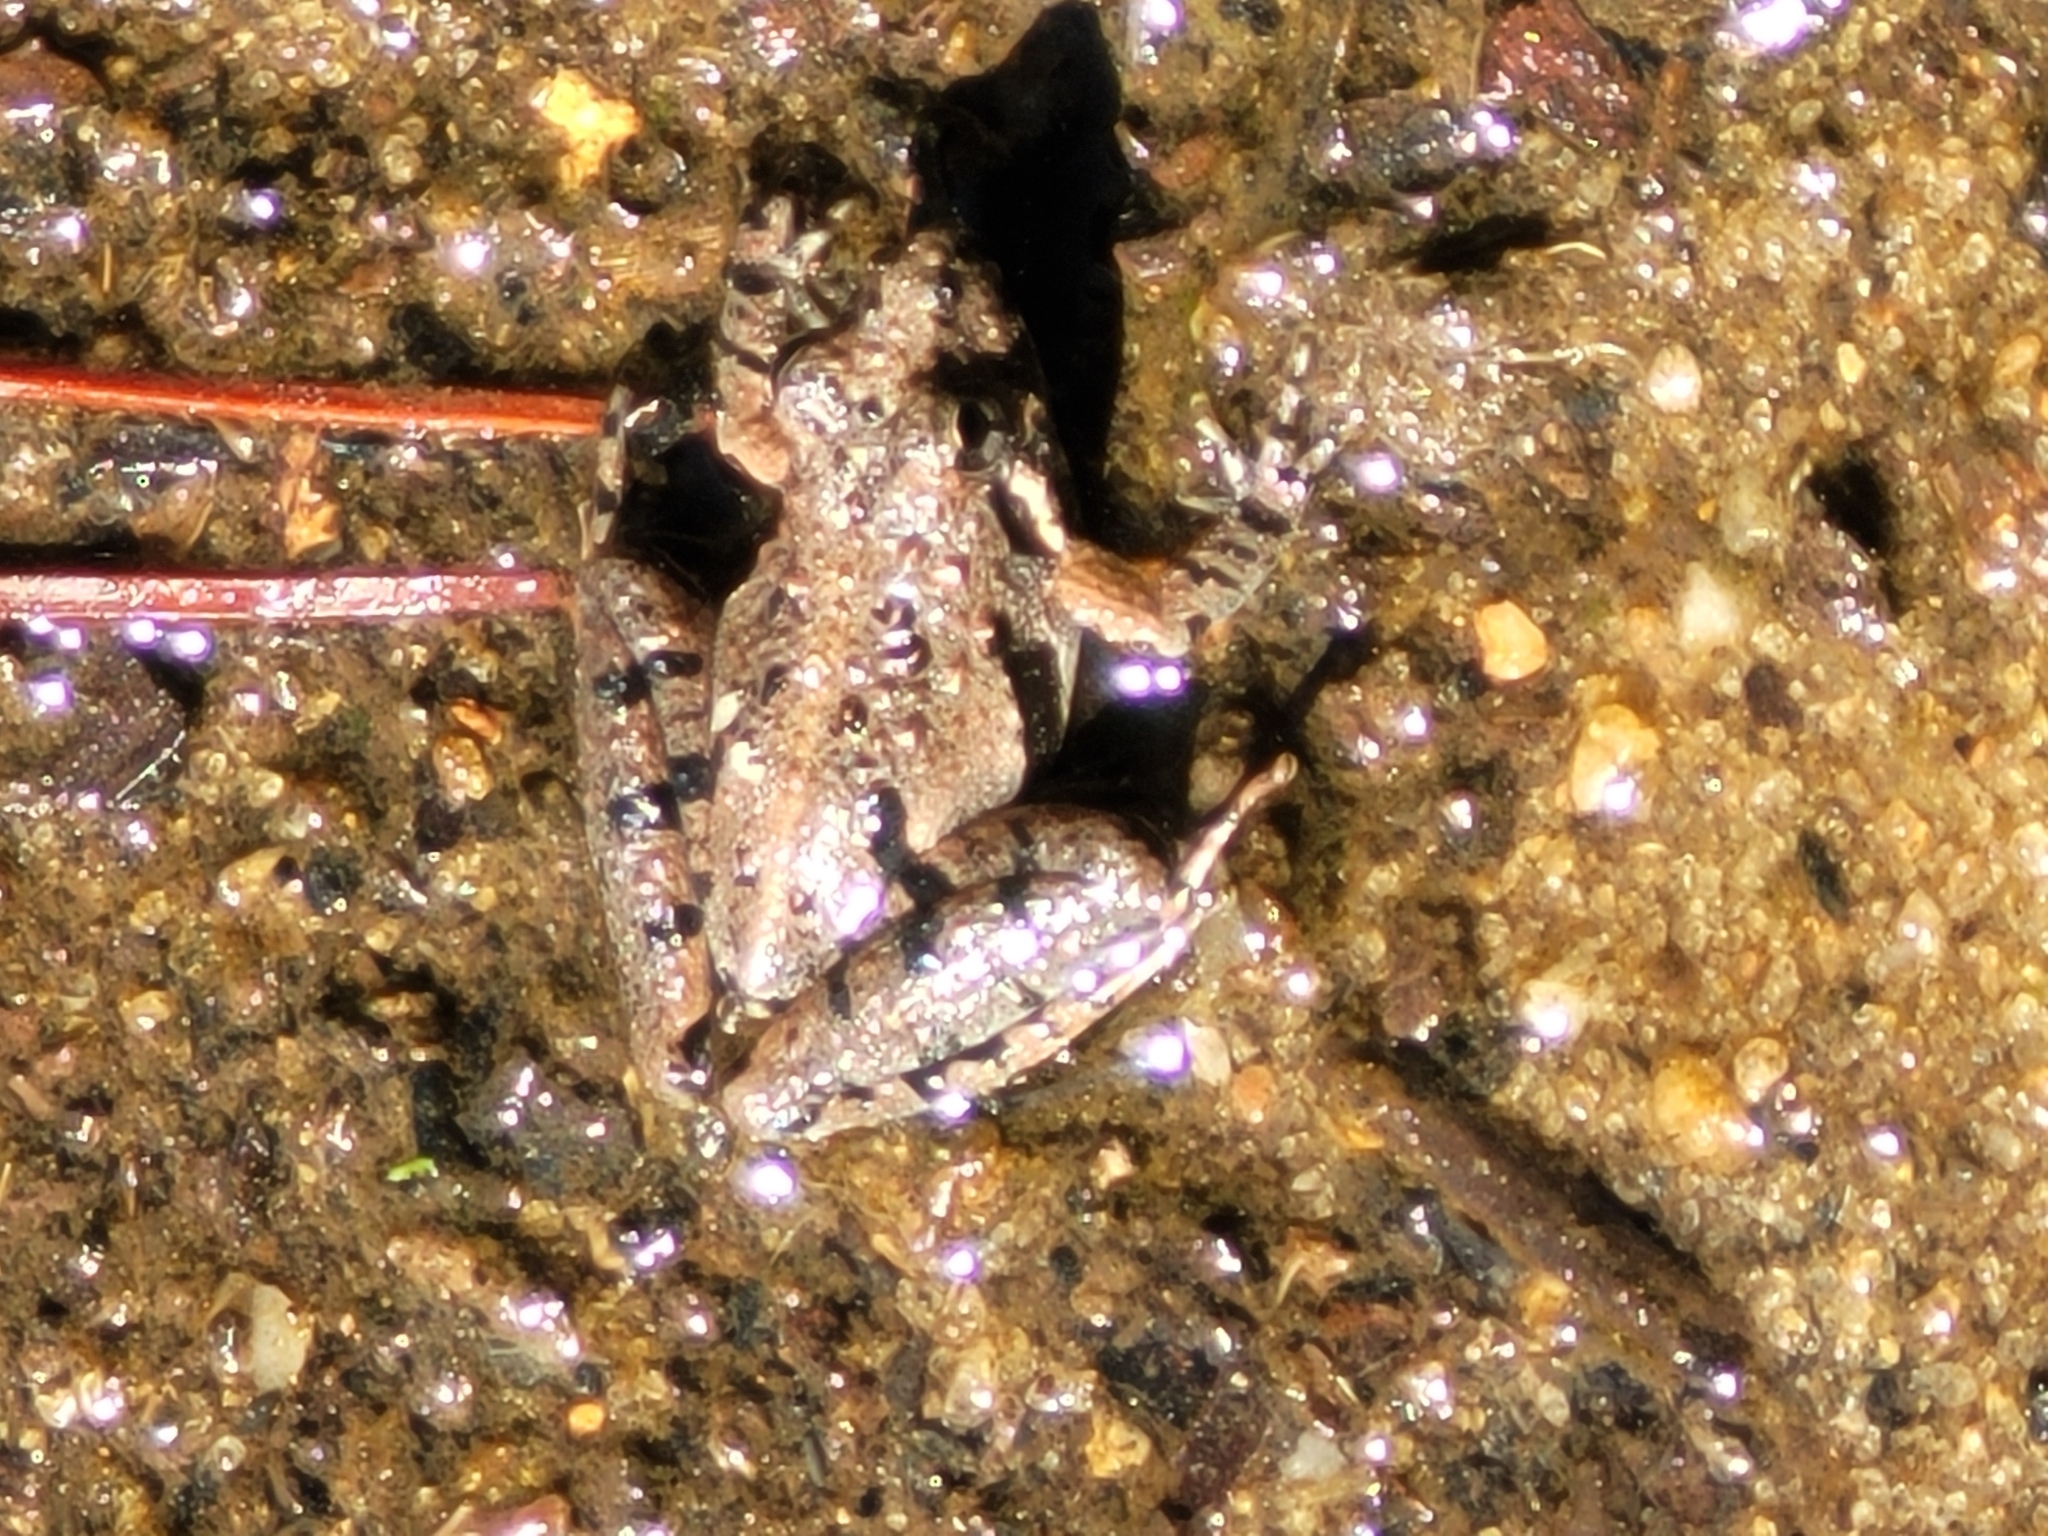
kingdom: Animalia
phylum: Chordata
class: Amphibia
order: Anura
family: Hylidae
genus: Acris
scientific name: Acris gryllus
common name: Southern cricket frog
